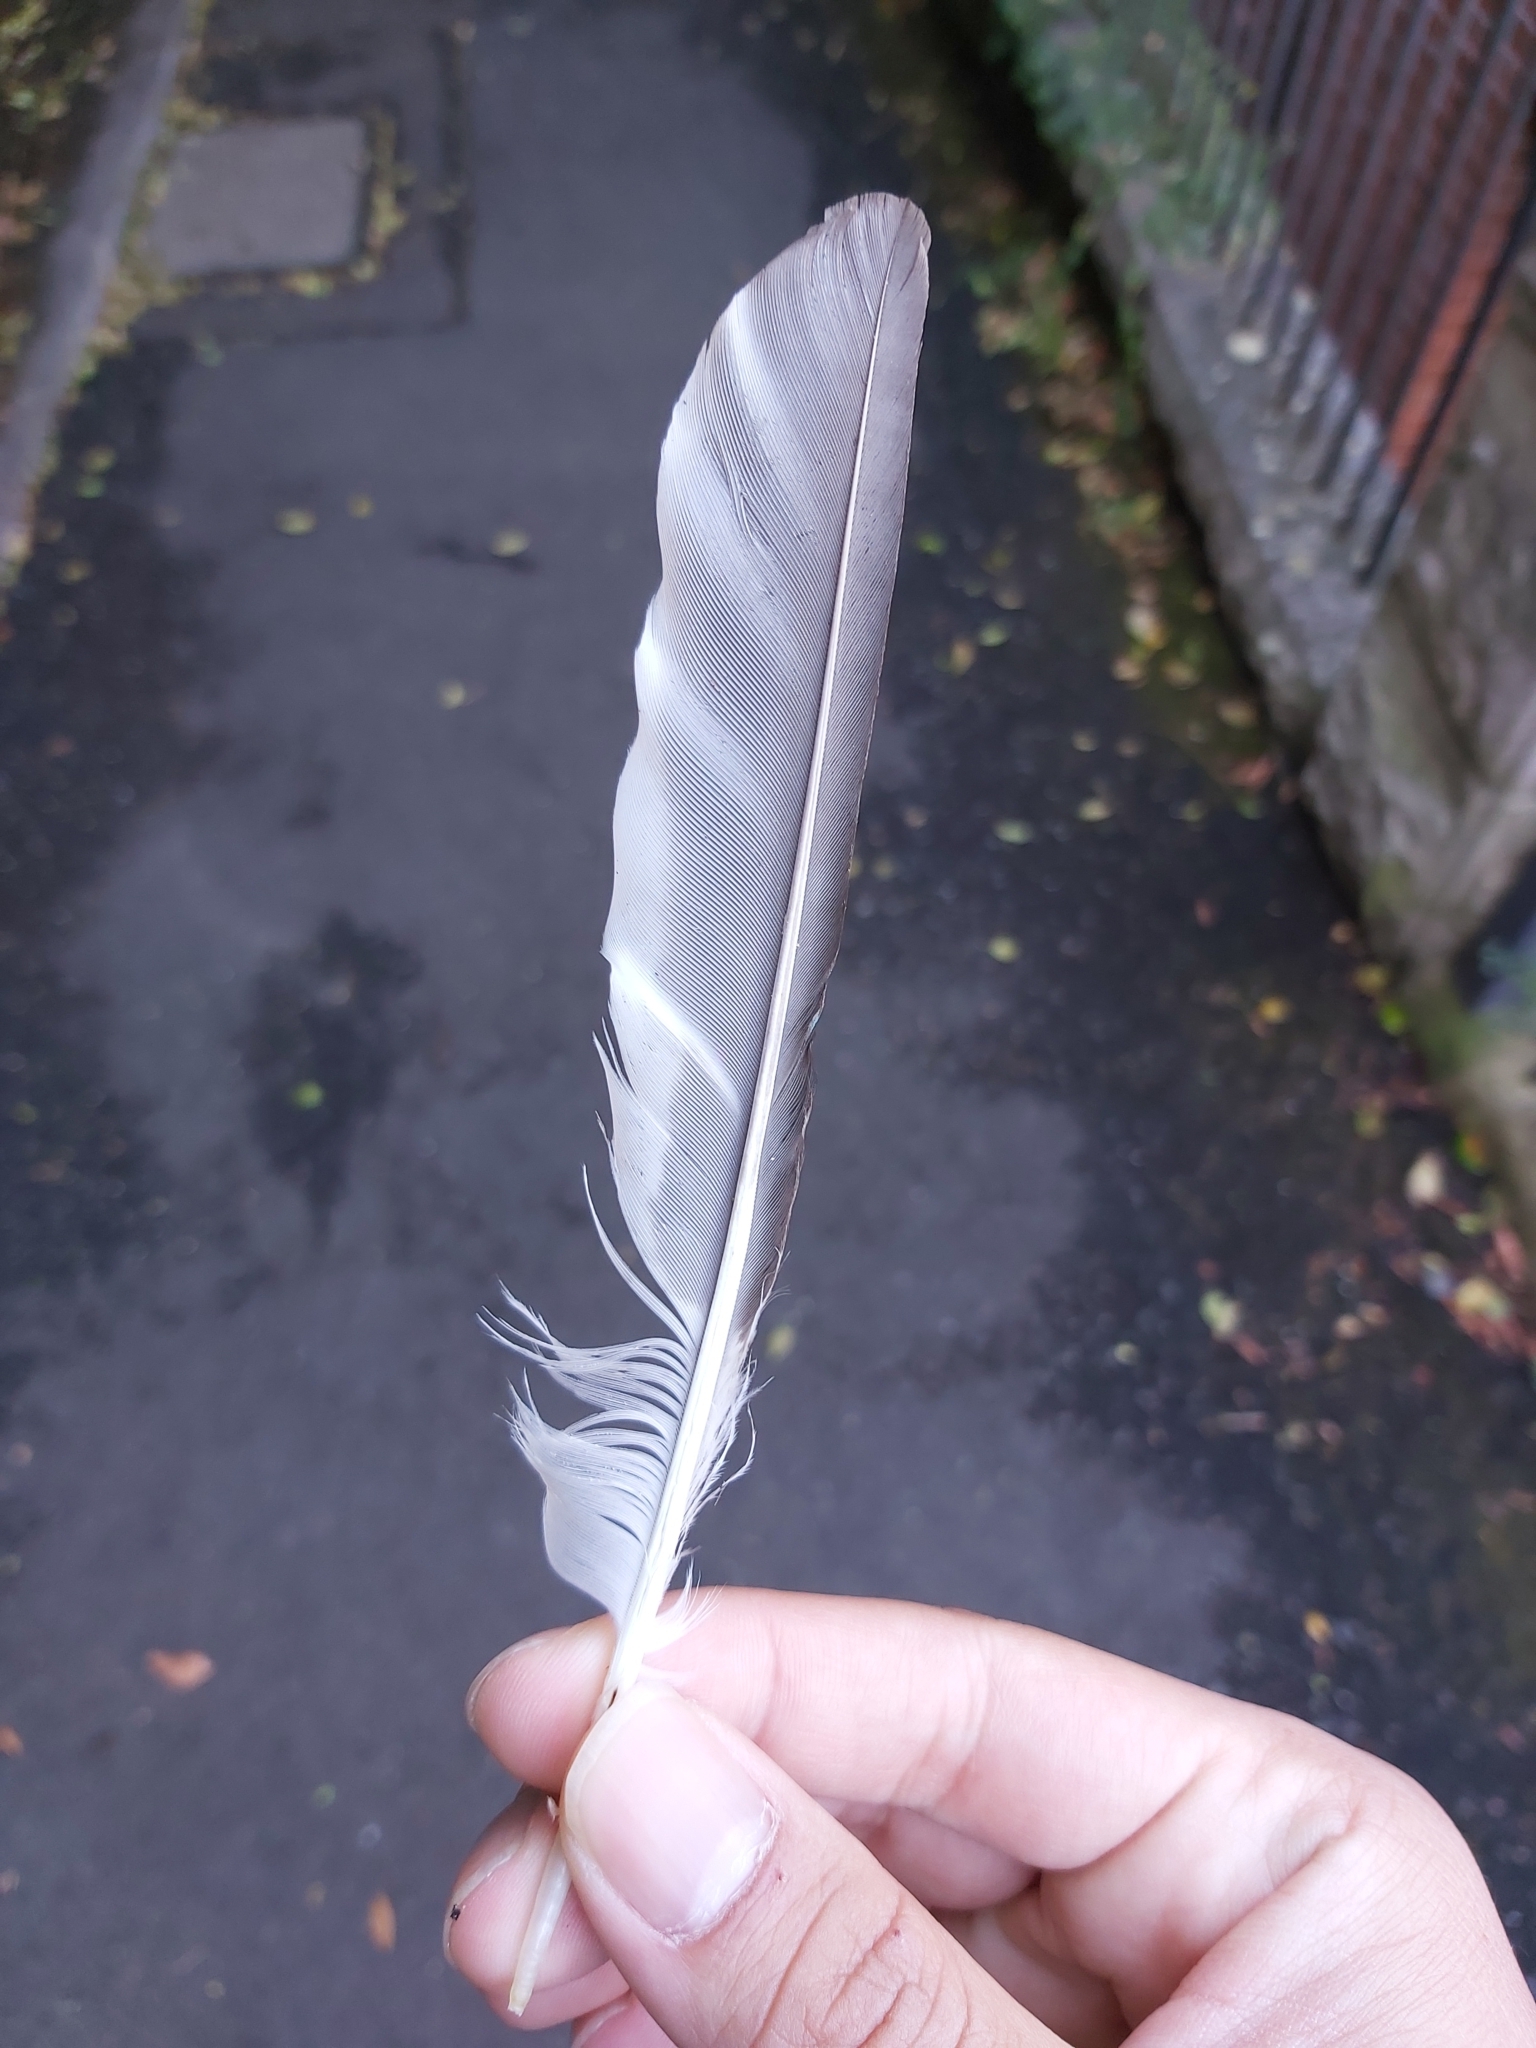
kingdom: Animalia
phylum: Chordata
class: Aves
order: Coraciiformes
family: Alcedinidae
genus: Dacelo
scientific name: Dacelo novaeguineae
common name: Laughing kookaburra
